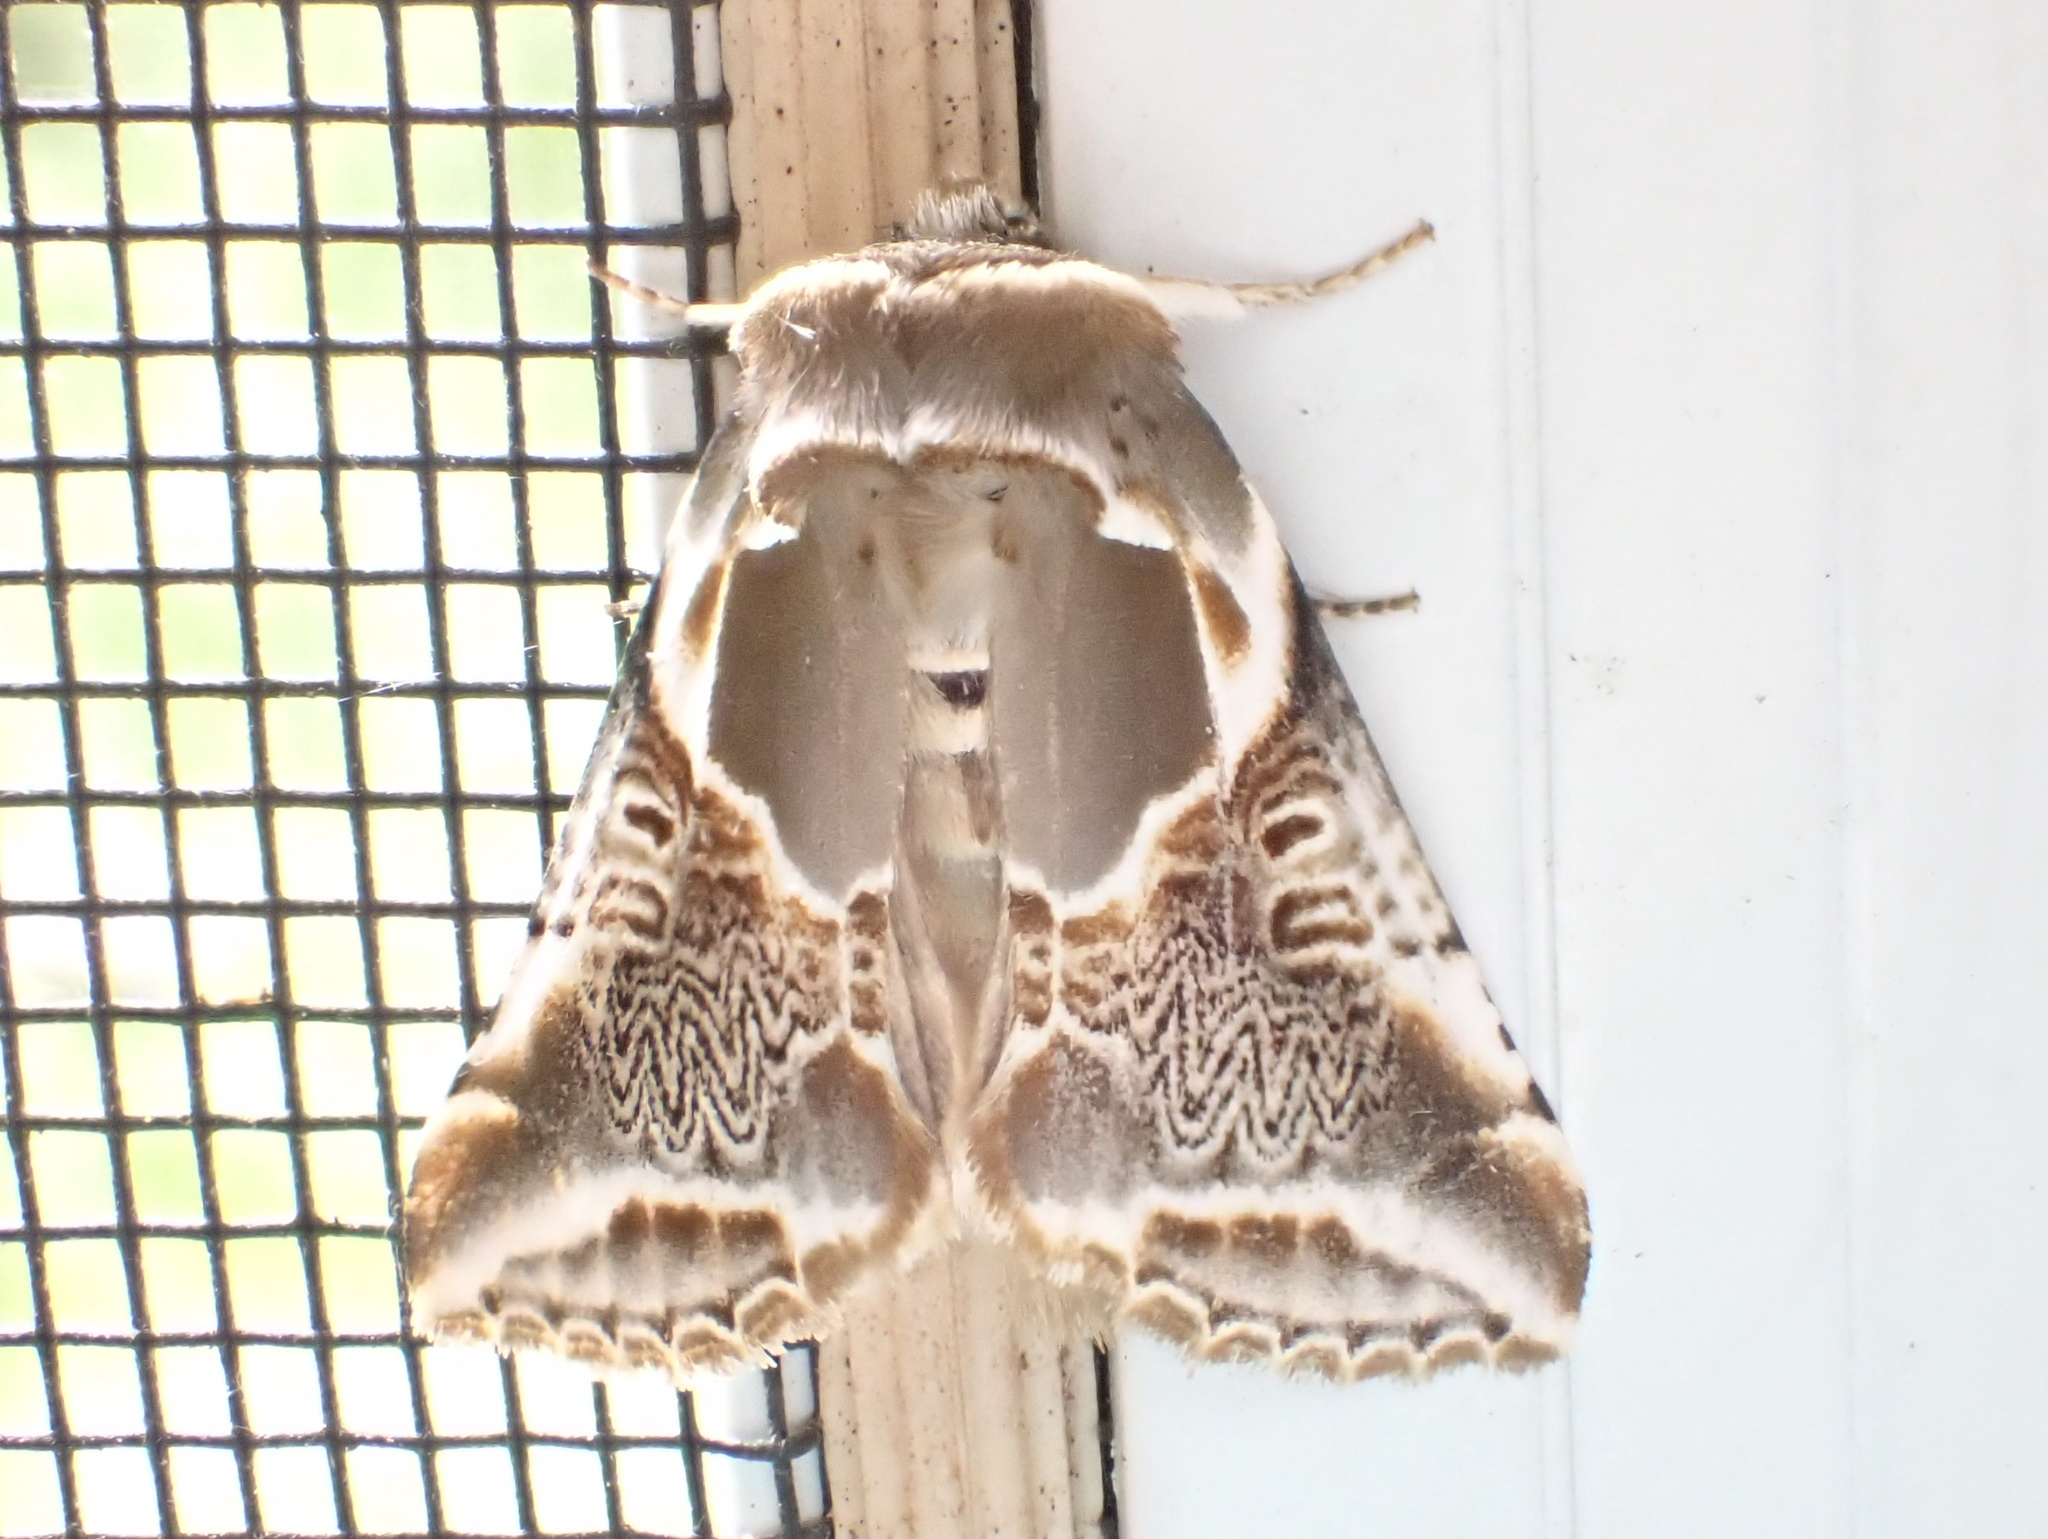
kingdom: Animalia
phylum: Arthropoda
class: Insecta
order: Lepidoptera
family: Drepanidae
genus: Habrosyne
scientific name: Habrosyne scripta
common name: Lettered habrosyne moth
